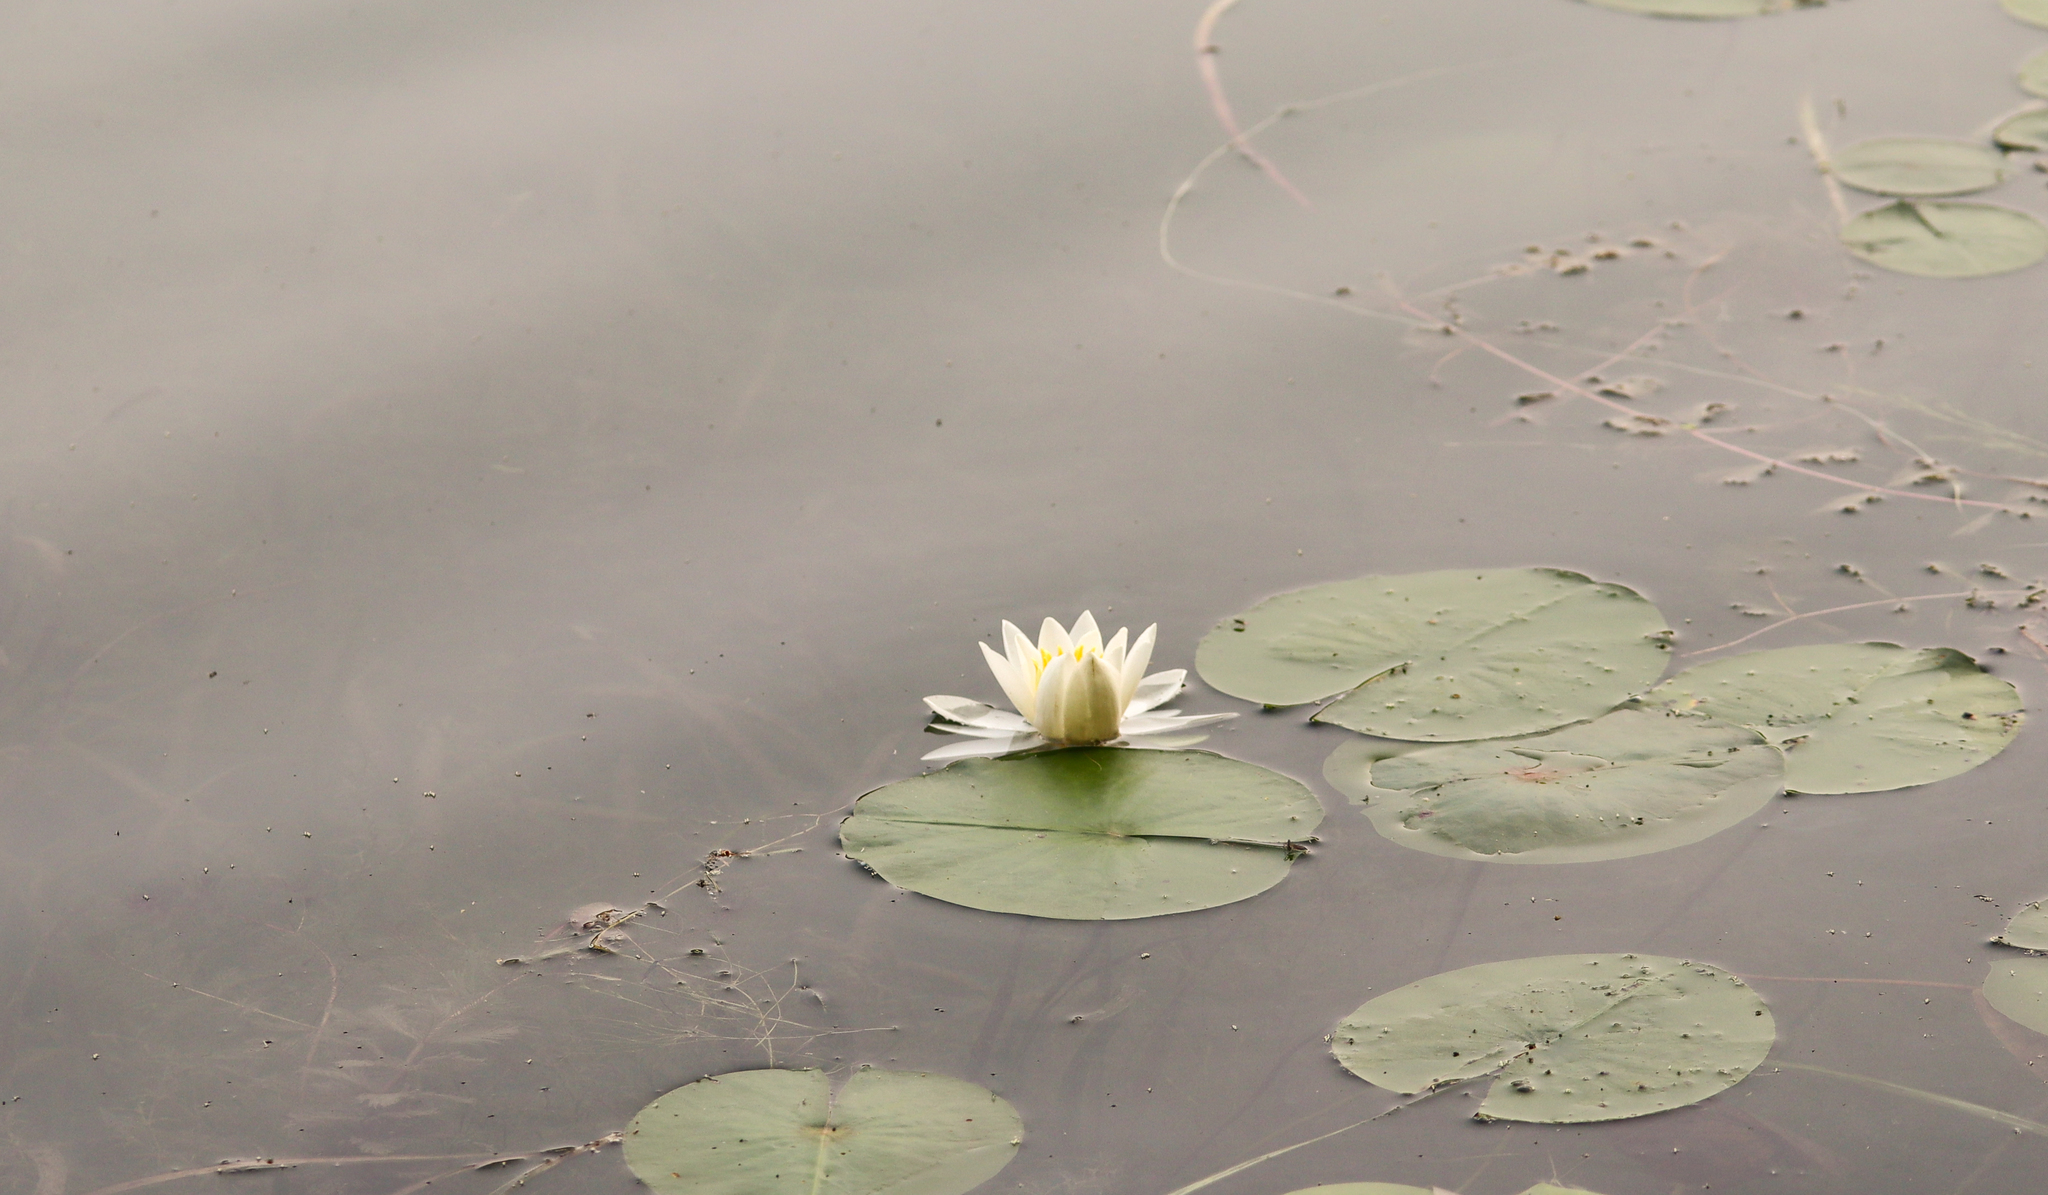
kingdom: Plantae
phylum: Tracheophyta
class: Magnoliopsida
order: Nymphaeales
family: Nymphaeaceae
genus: Nymphaea
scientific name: Nymphaea odorata
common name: Fragrant water-lily
